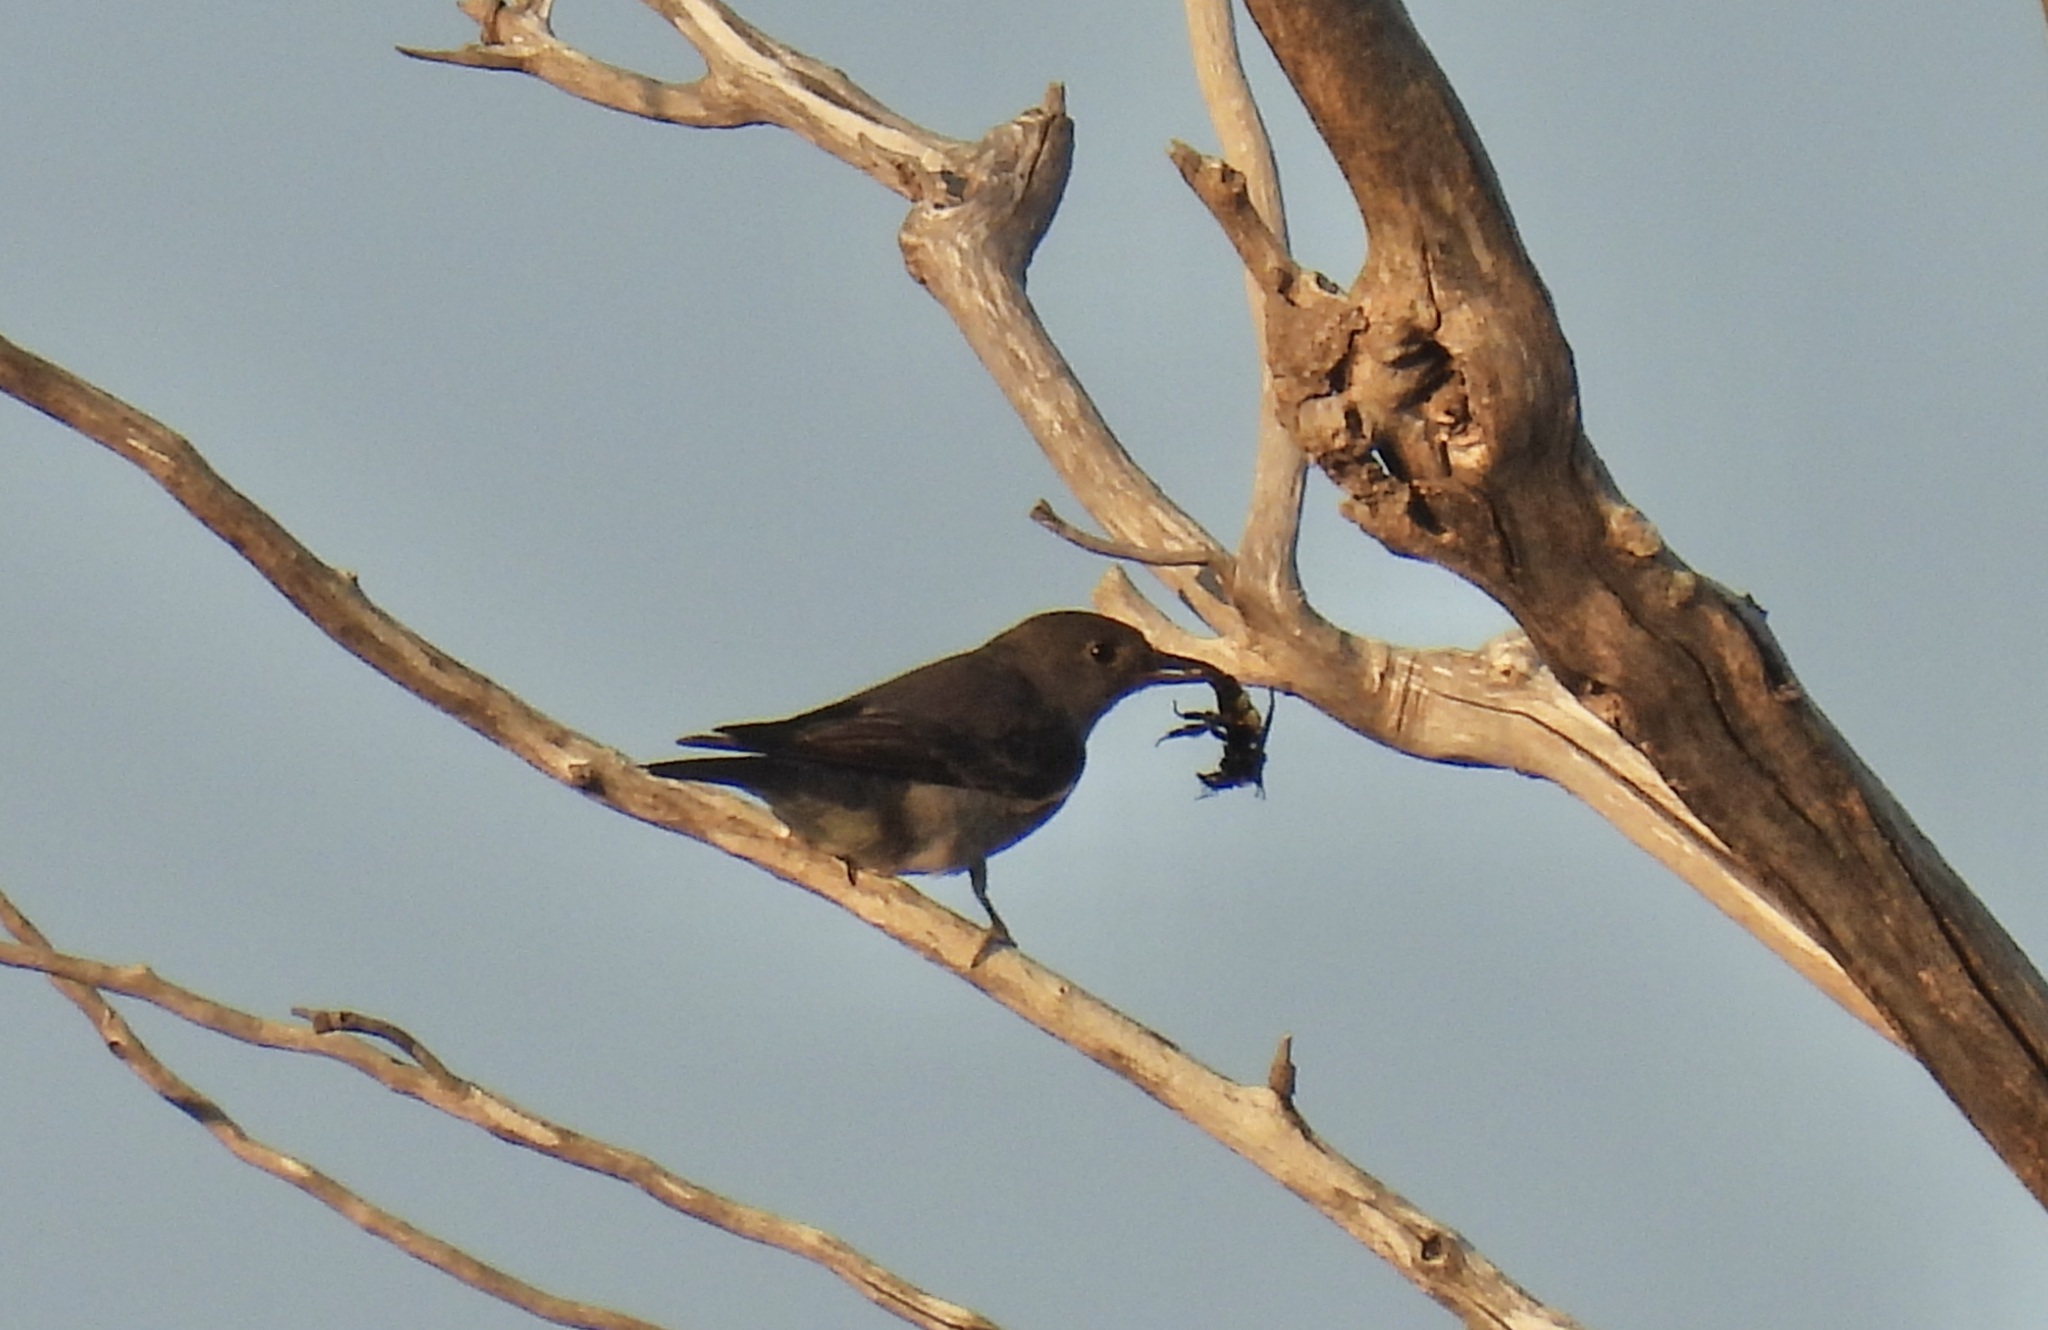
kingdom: Animalia
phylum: Arthropoda
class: Insecta
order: Hymenoptera
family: Apidae
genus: Bombus
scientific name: Bombus
